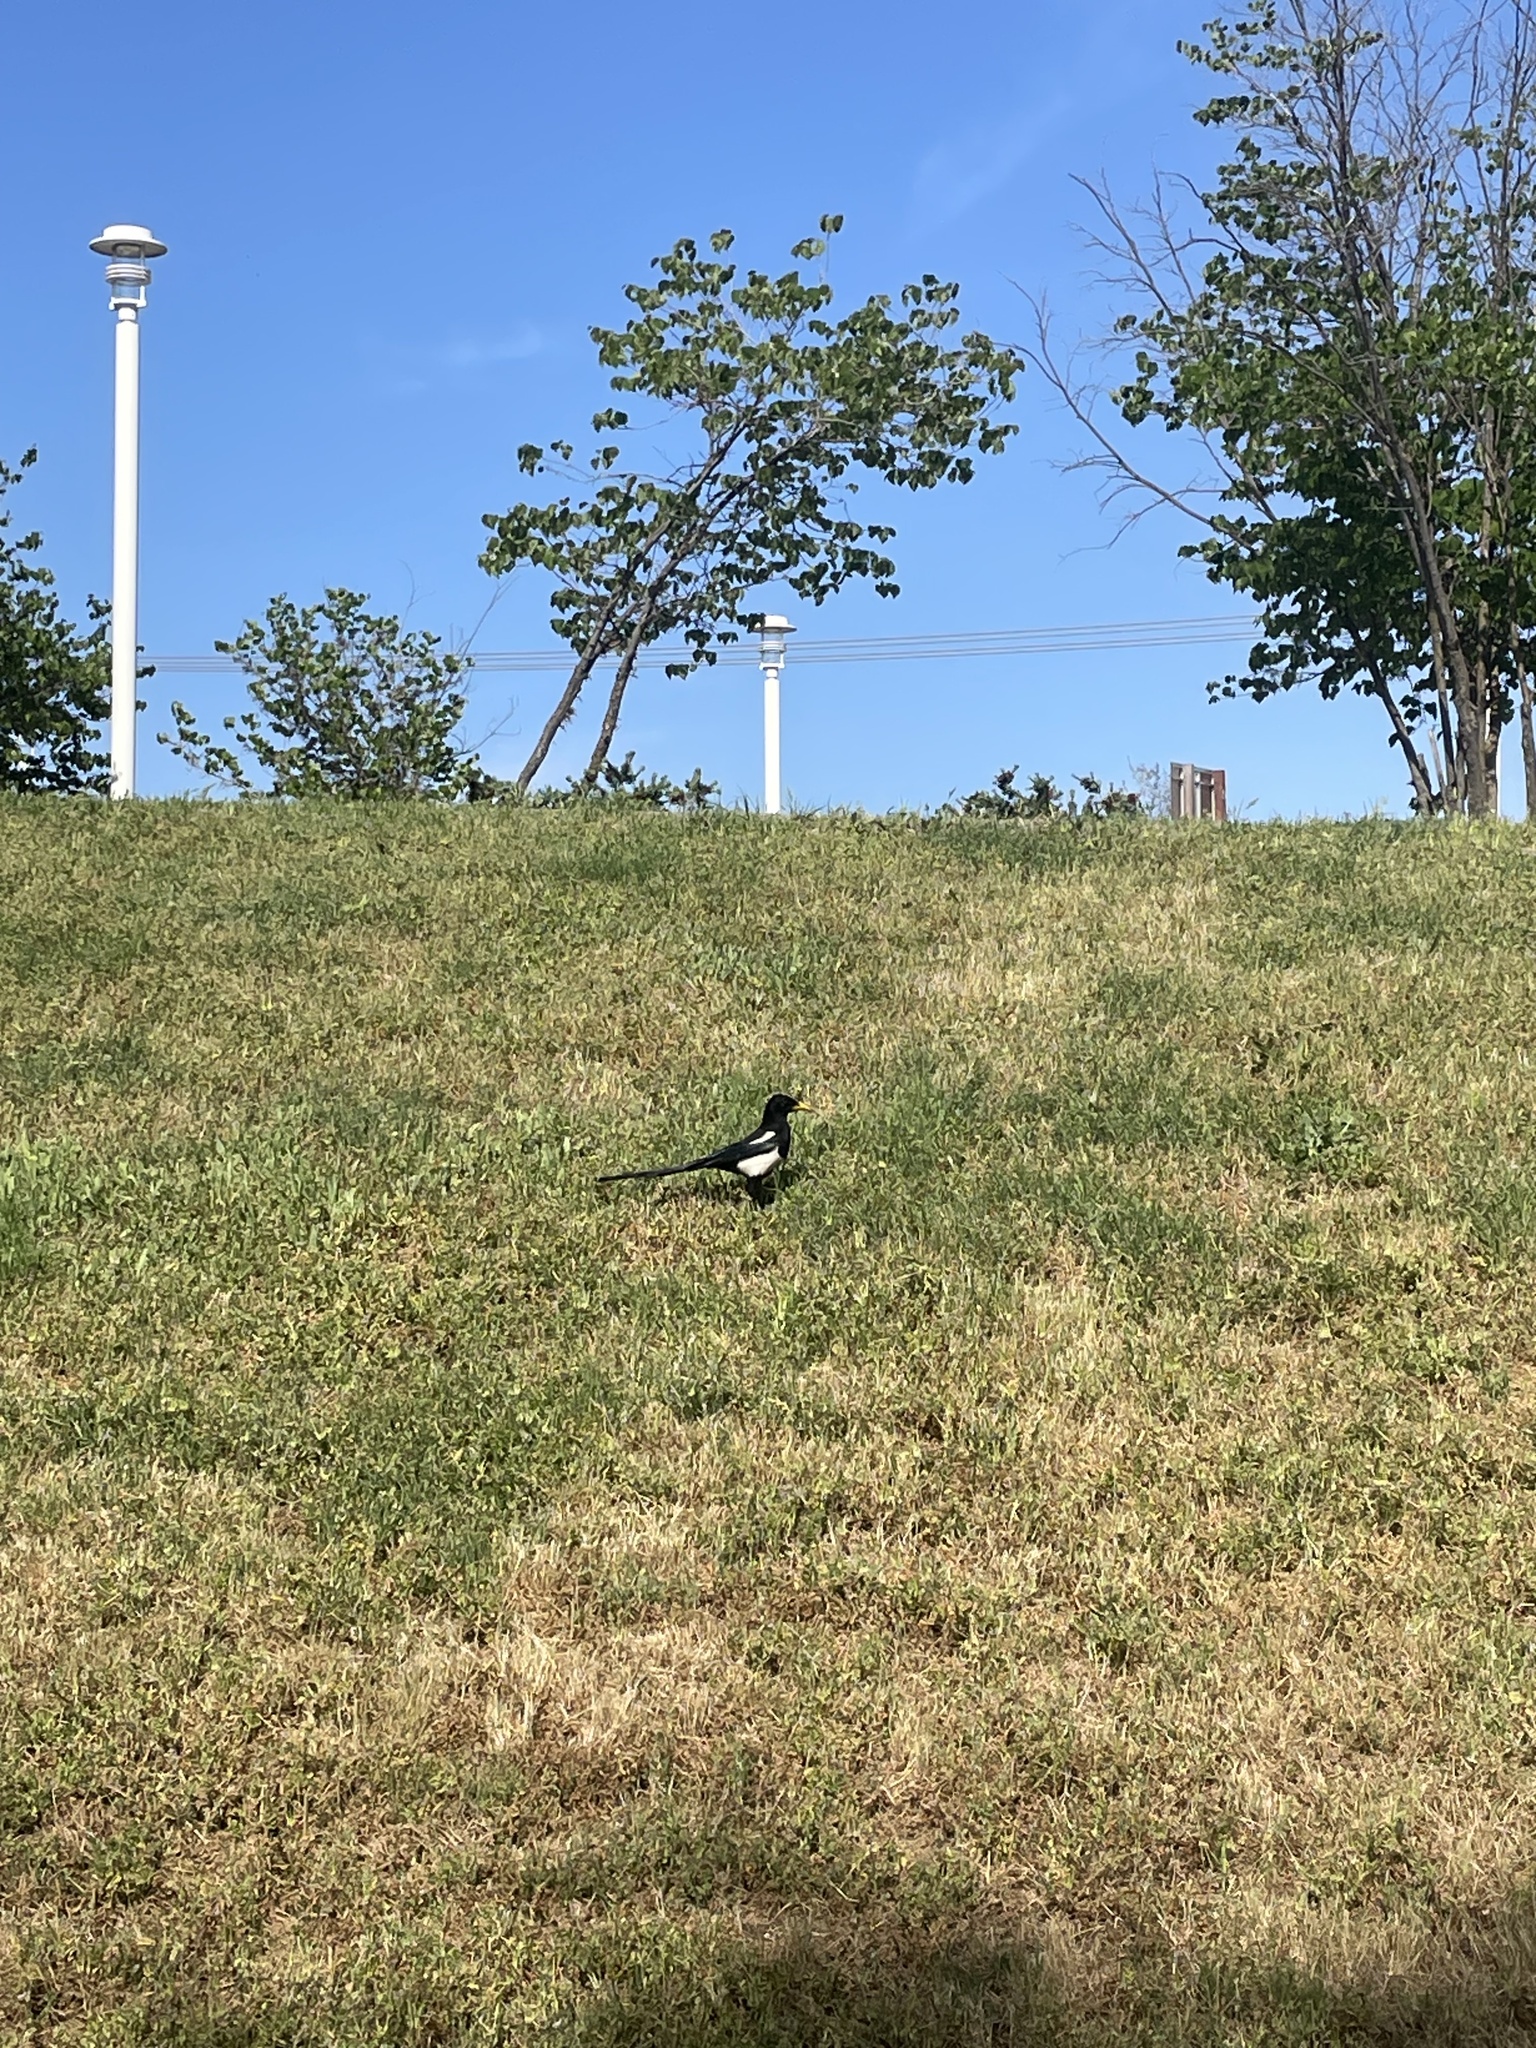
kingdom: Animalia
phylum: Chordata
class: Aves
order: Passeriformes
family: Corvidae
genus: Pica
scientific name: Pica nuttalli
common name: Yellow-billed magpie
